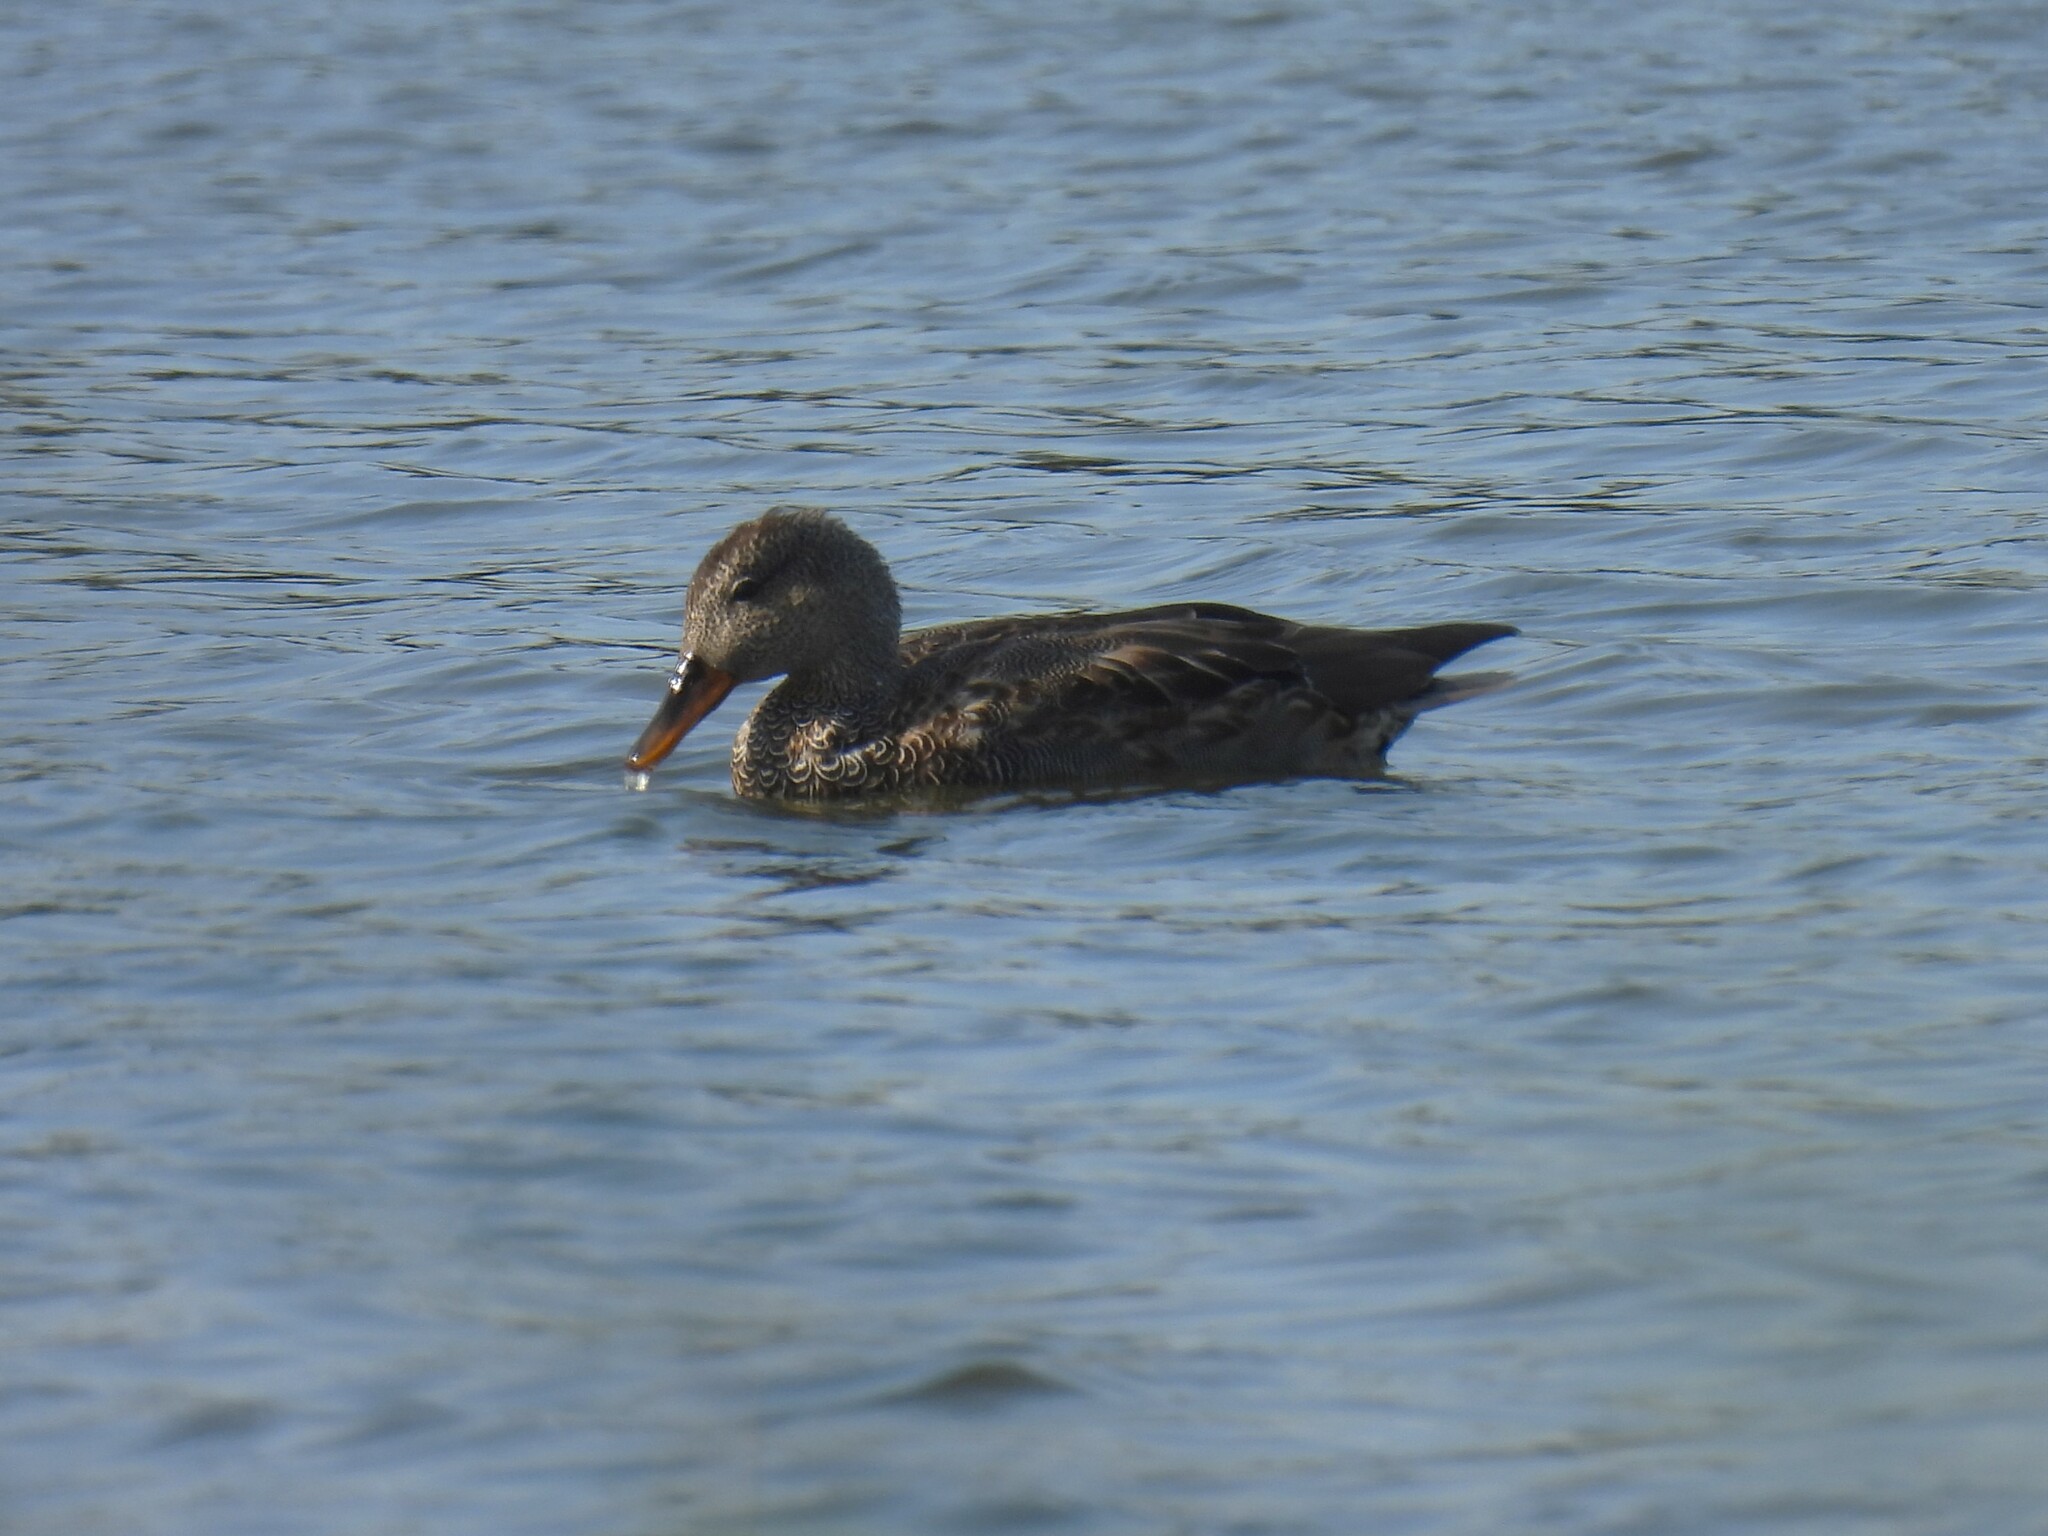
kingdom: Animalia
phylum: Chordata
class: Aves
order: Anseriformes
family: Anatidae
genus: Mareca
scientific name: Mareca strepera
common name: Gadwall
